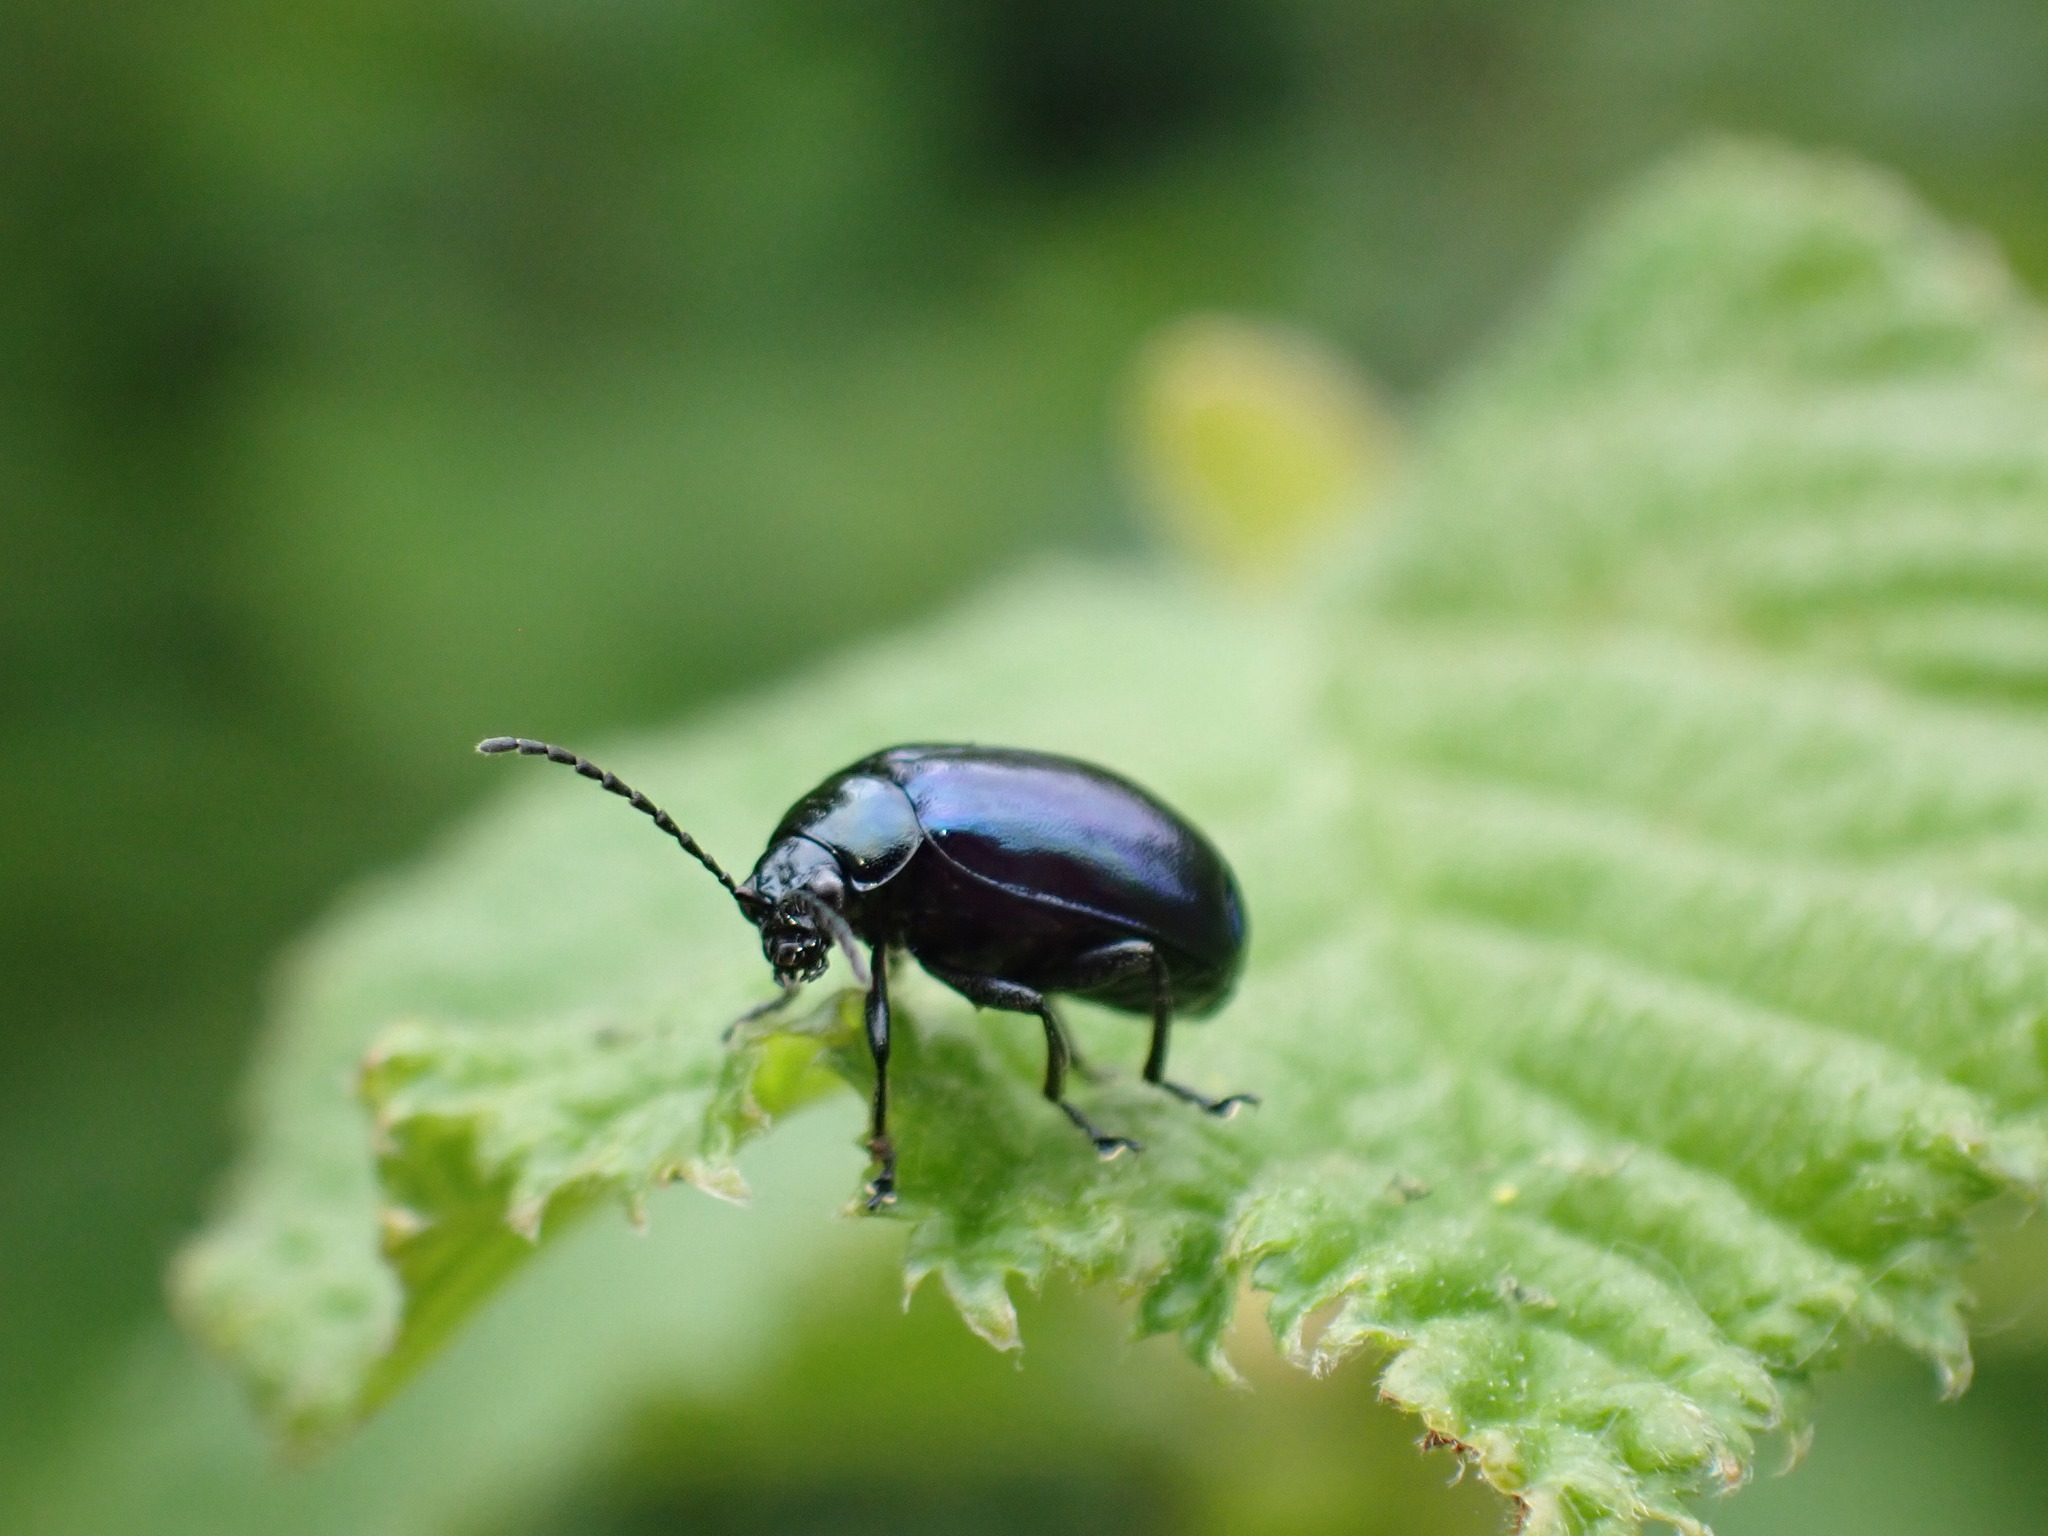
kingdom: Animalia
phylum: Arthropoda
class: Insecta
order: Coleoptera
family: Chrysomelidae
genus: Agelastica
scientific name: Agelastica alni
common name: Alder leaf beetle
